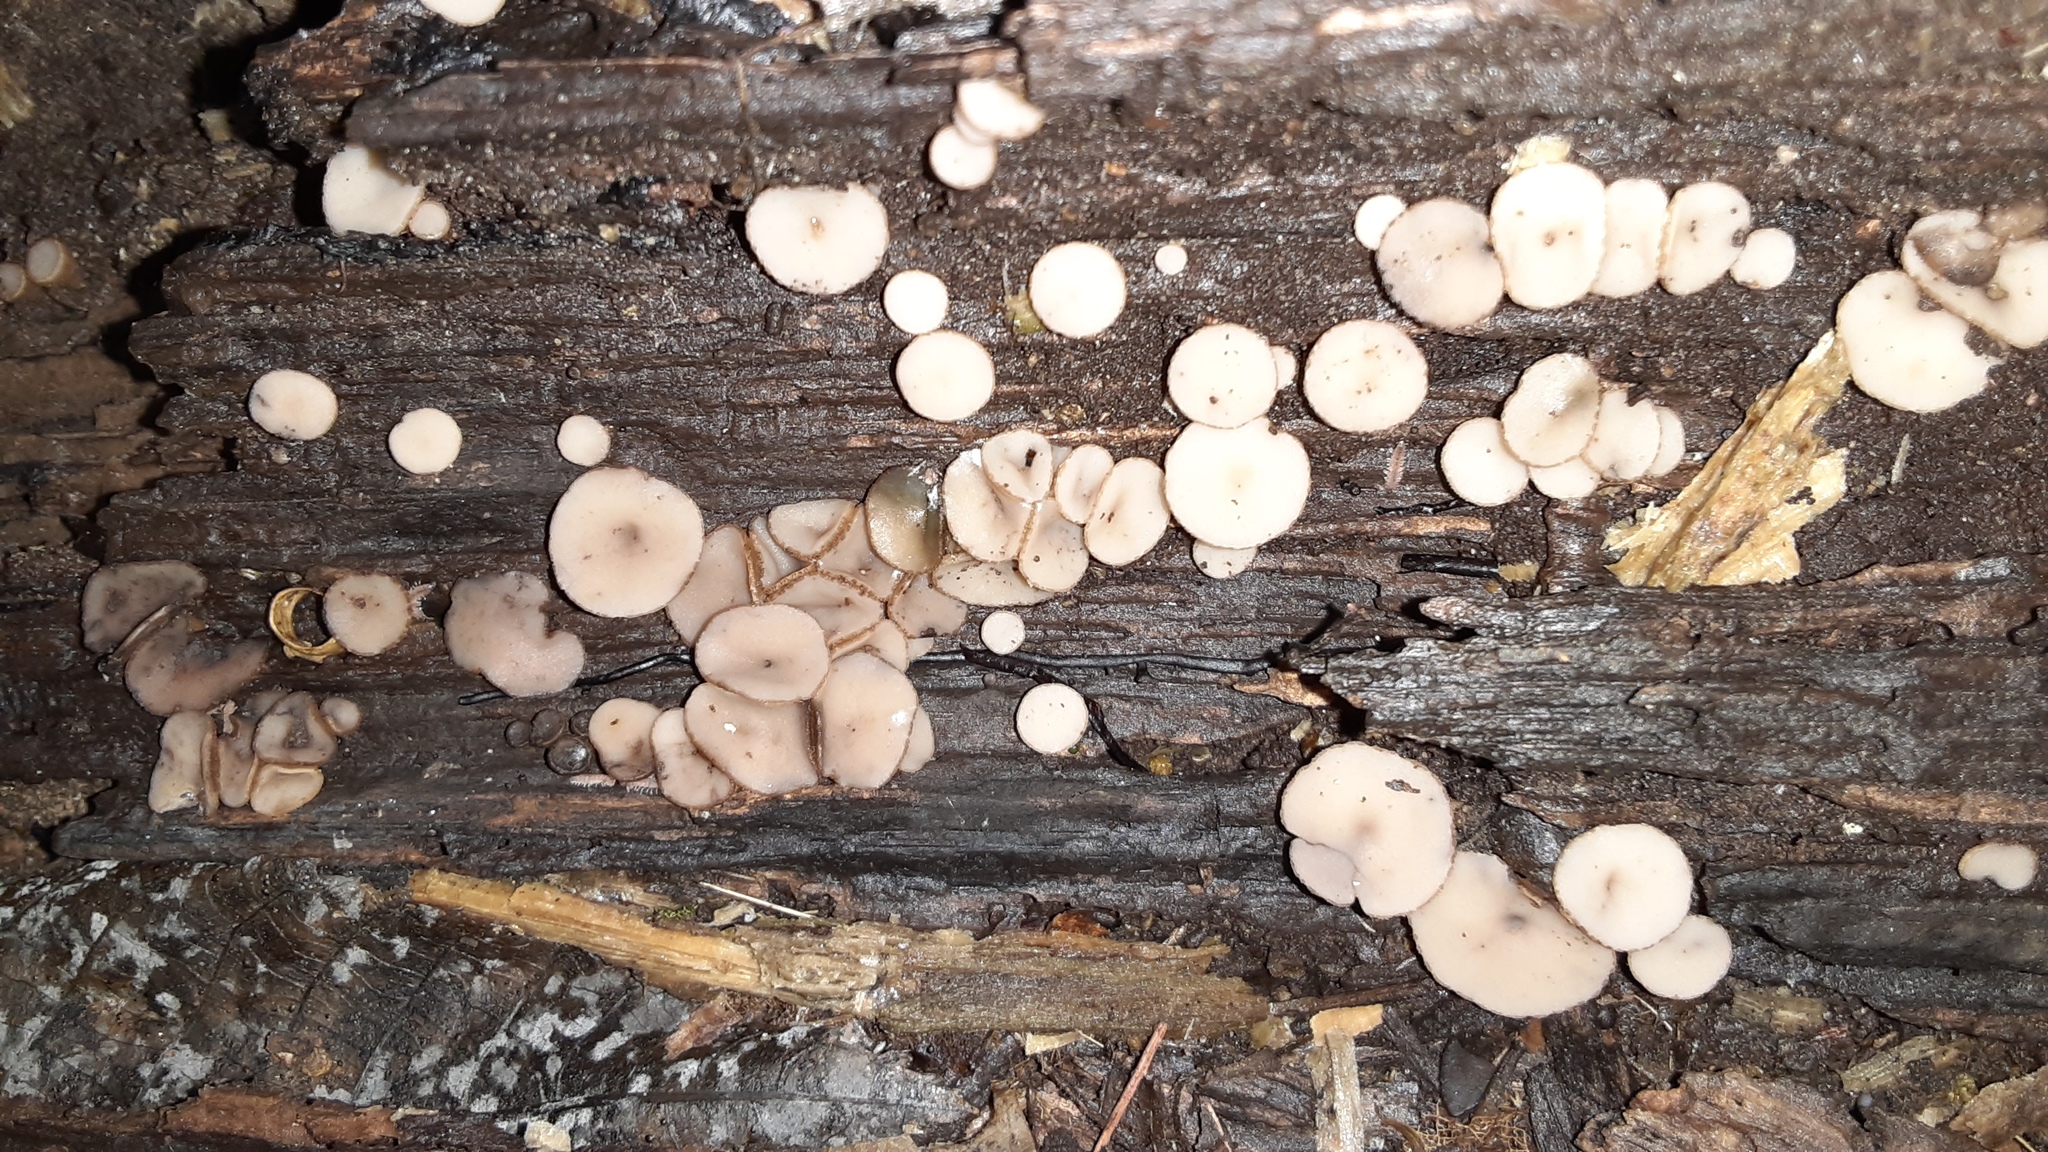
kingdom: Fungi
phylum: Ascomycota
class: Leotiomycetes
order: Helotiales
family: Helotiaceae
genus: Tatraea
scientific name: Tatraea macrospora
